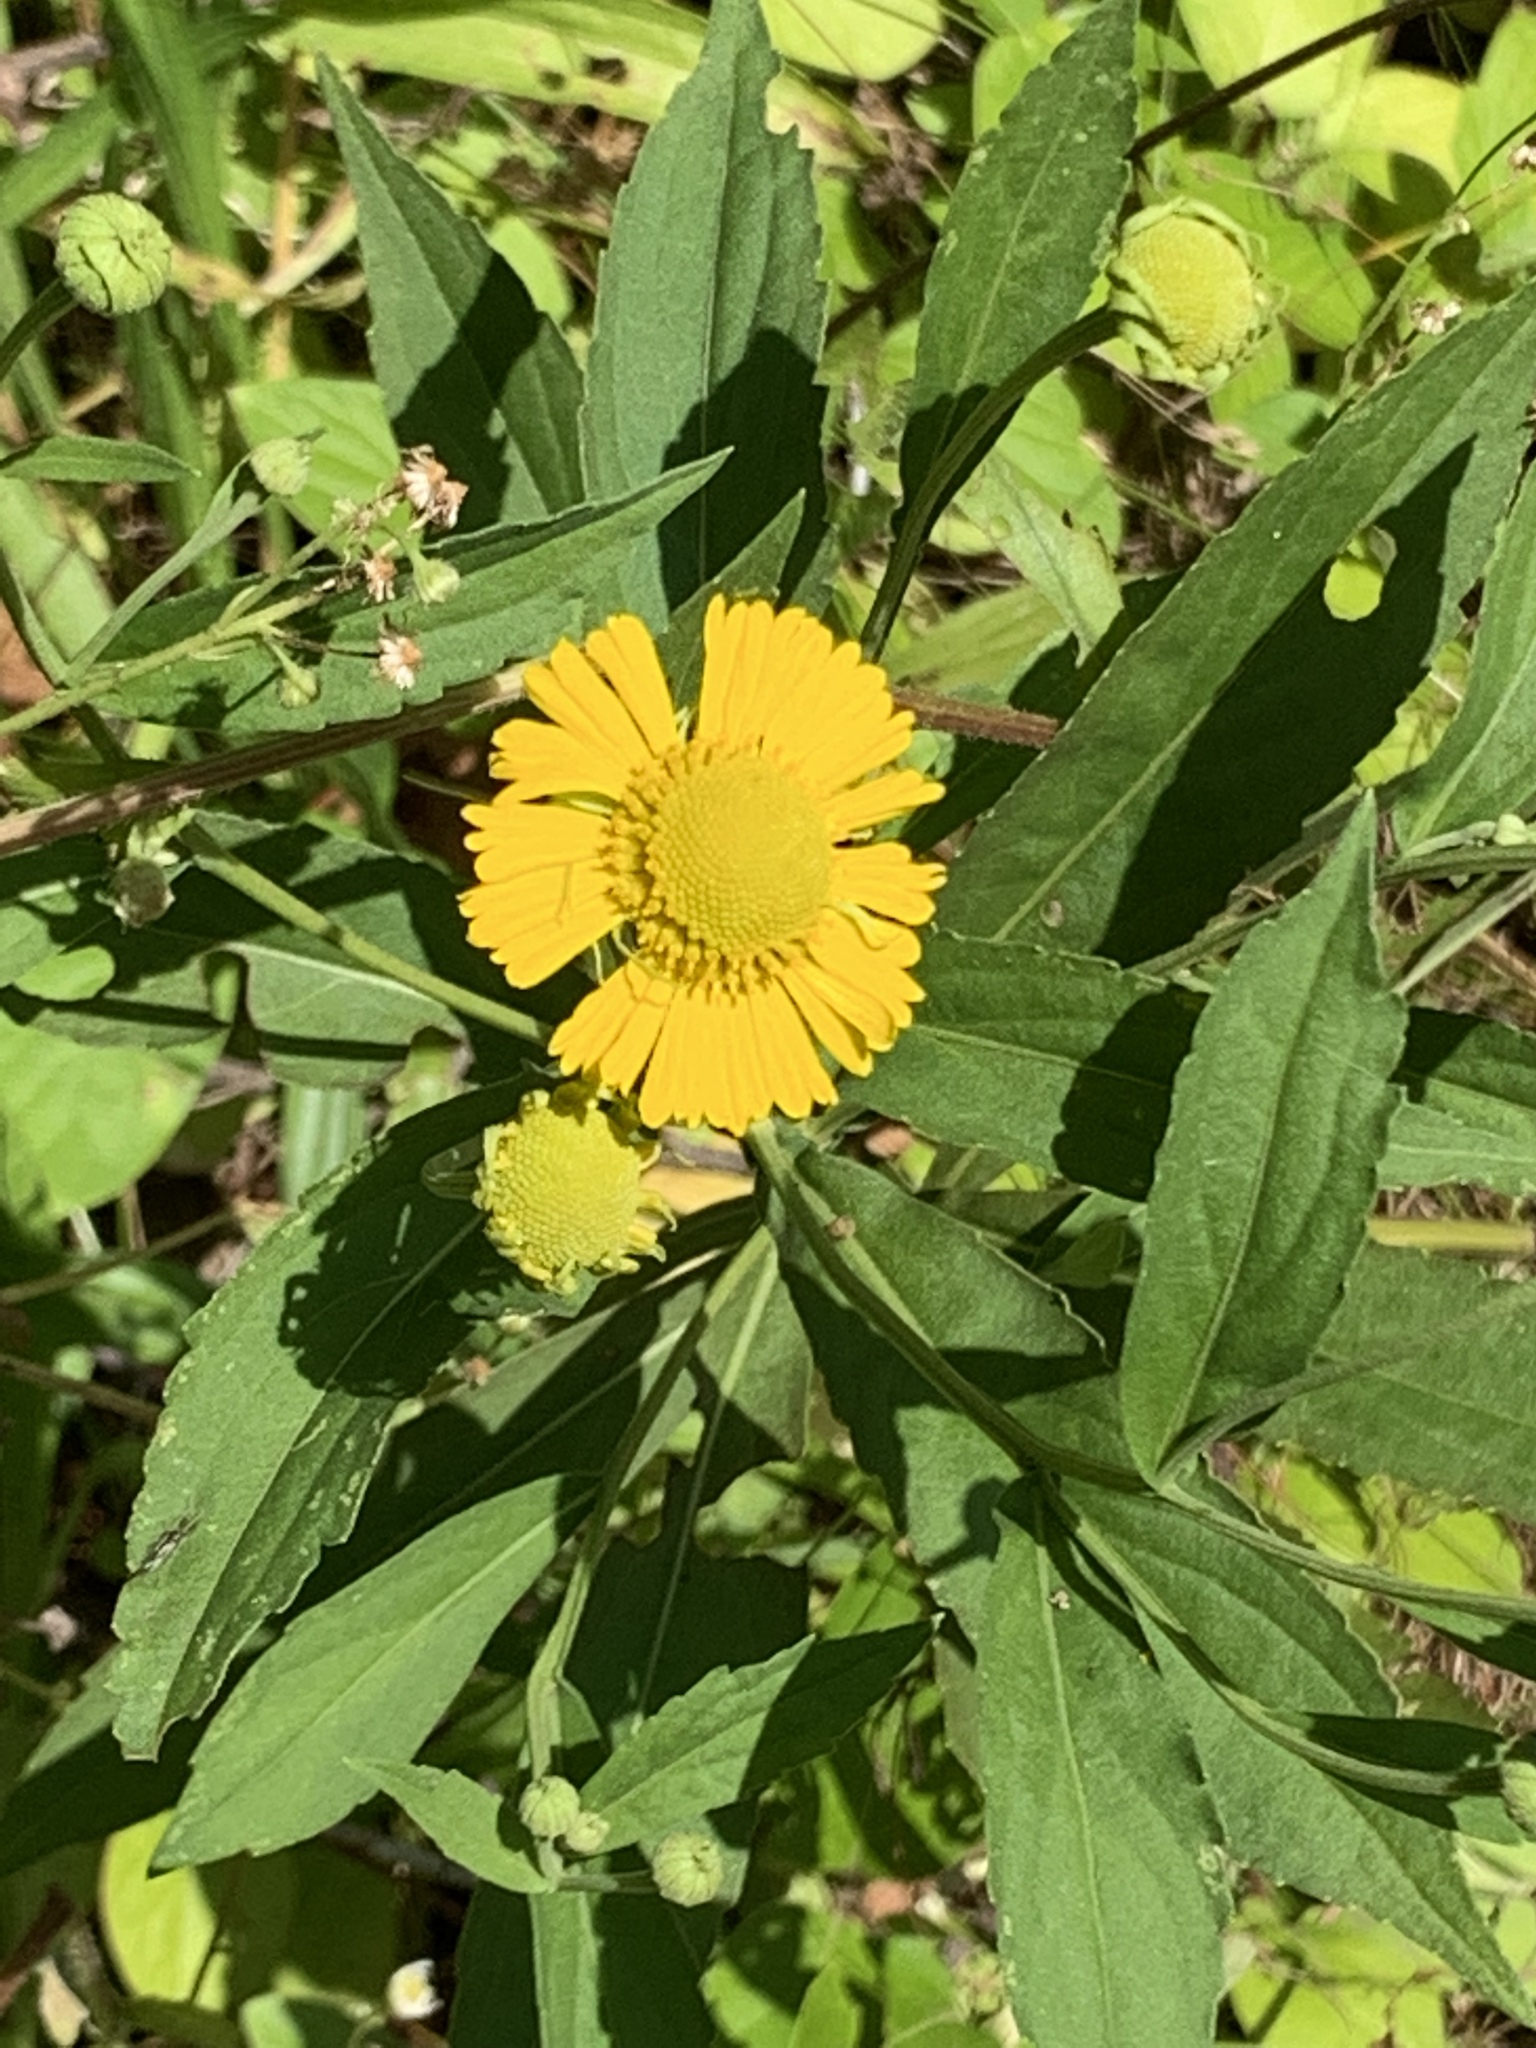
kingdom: Plantae
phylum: Tracheophyta
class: Magnoliopsida
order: Asterales
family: Asteraceae
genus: Helenium
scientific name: Helenium autumnale
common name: Sneezeweed
